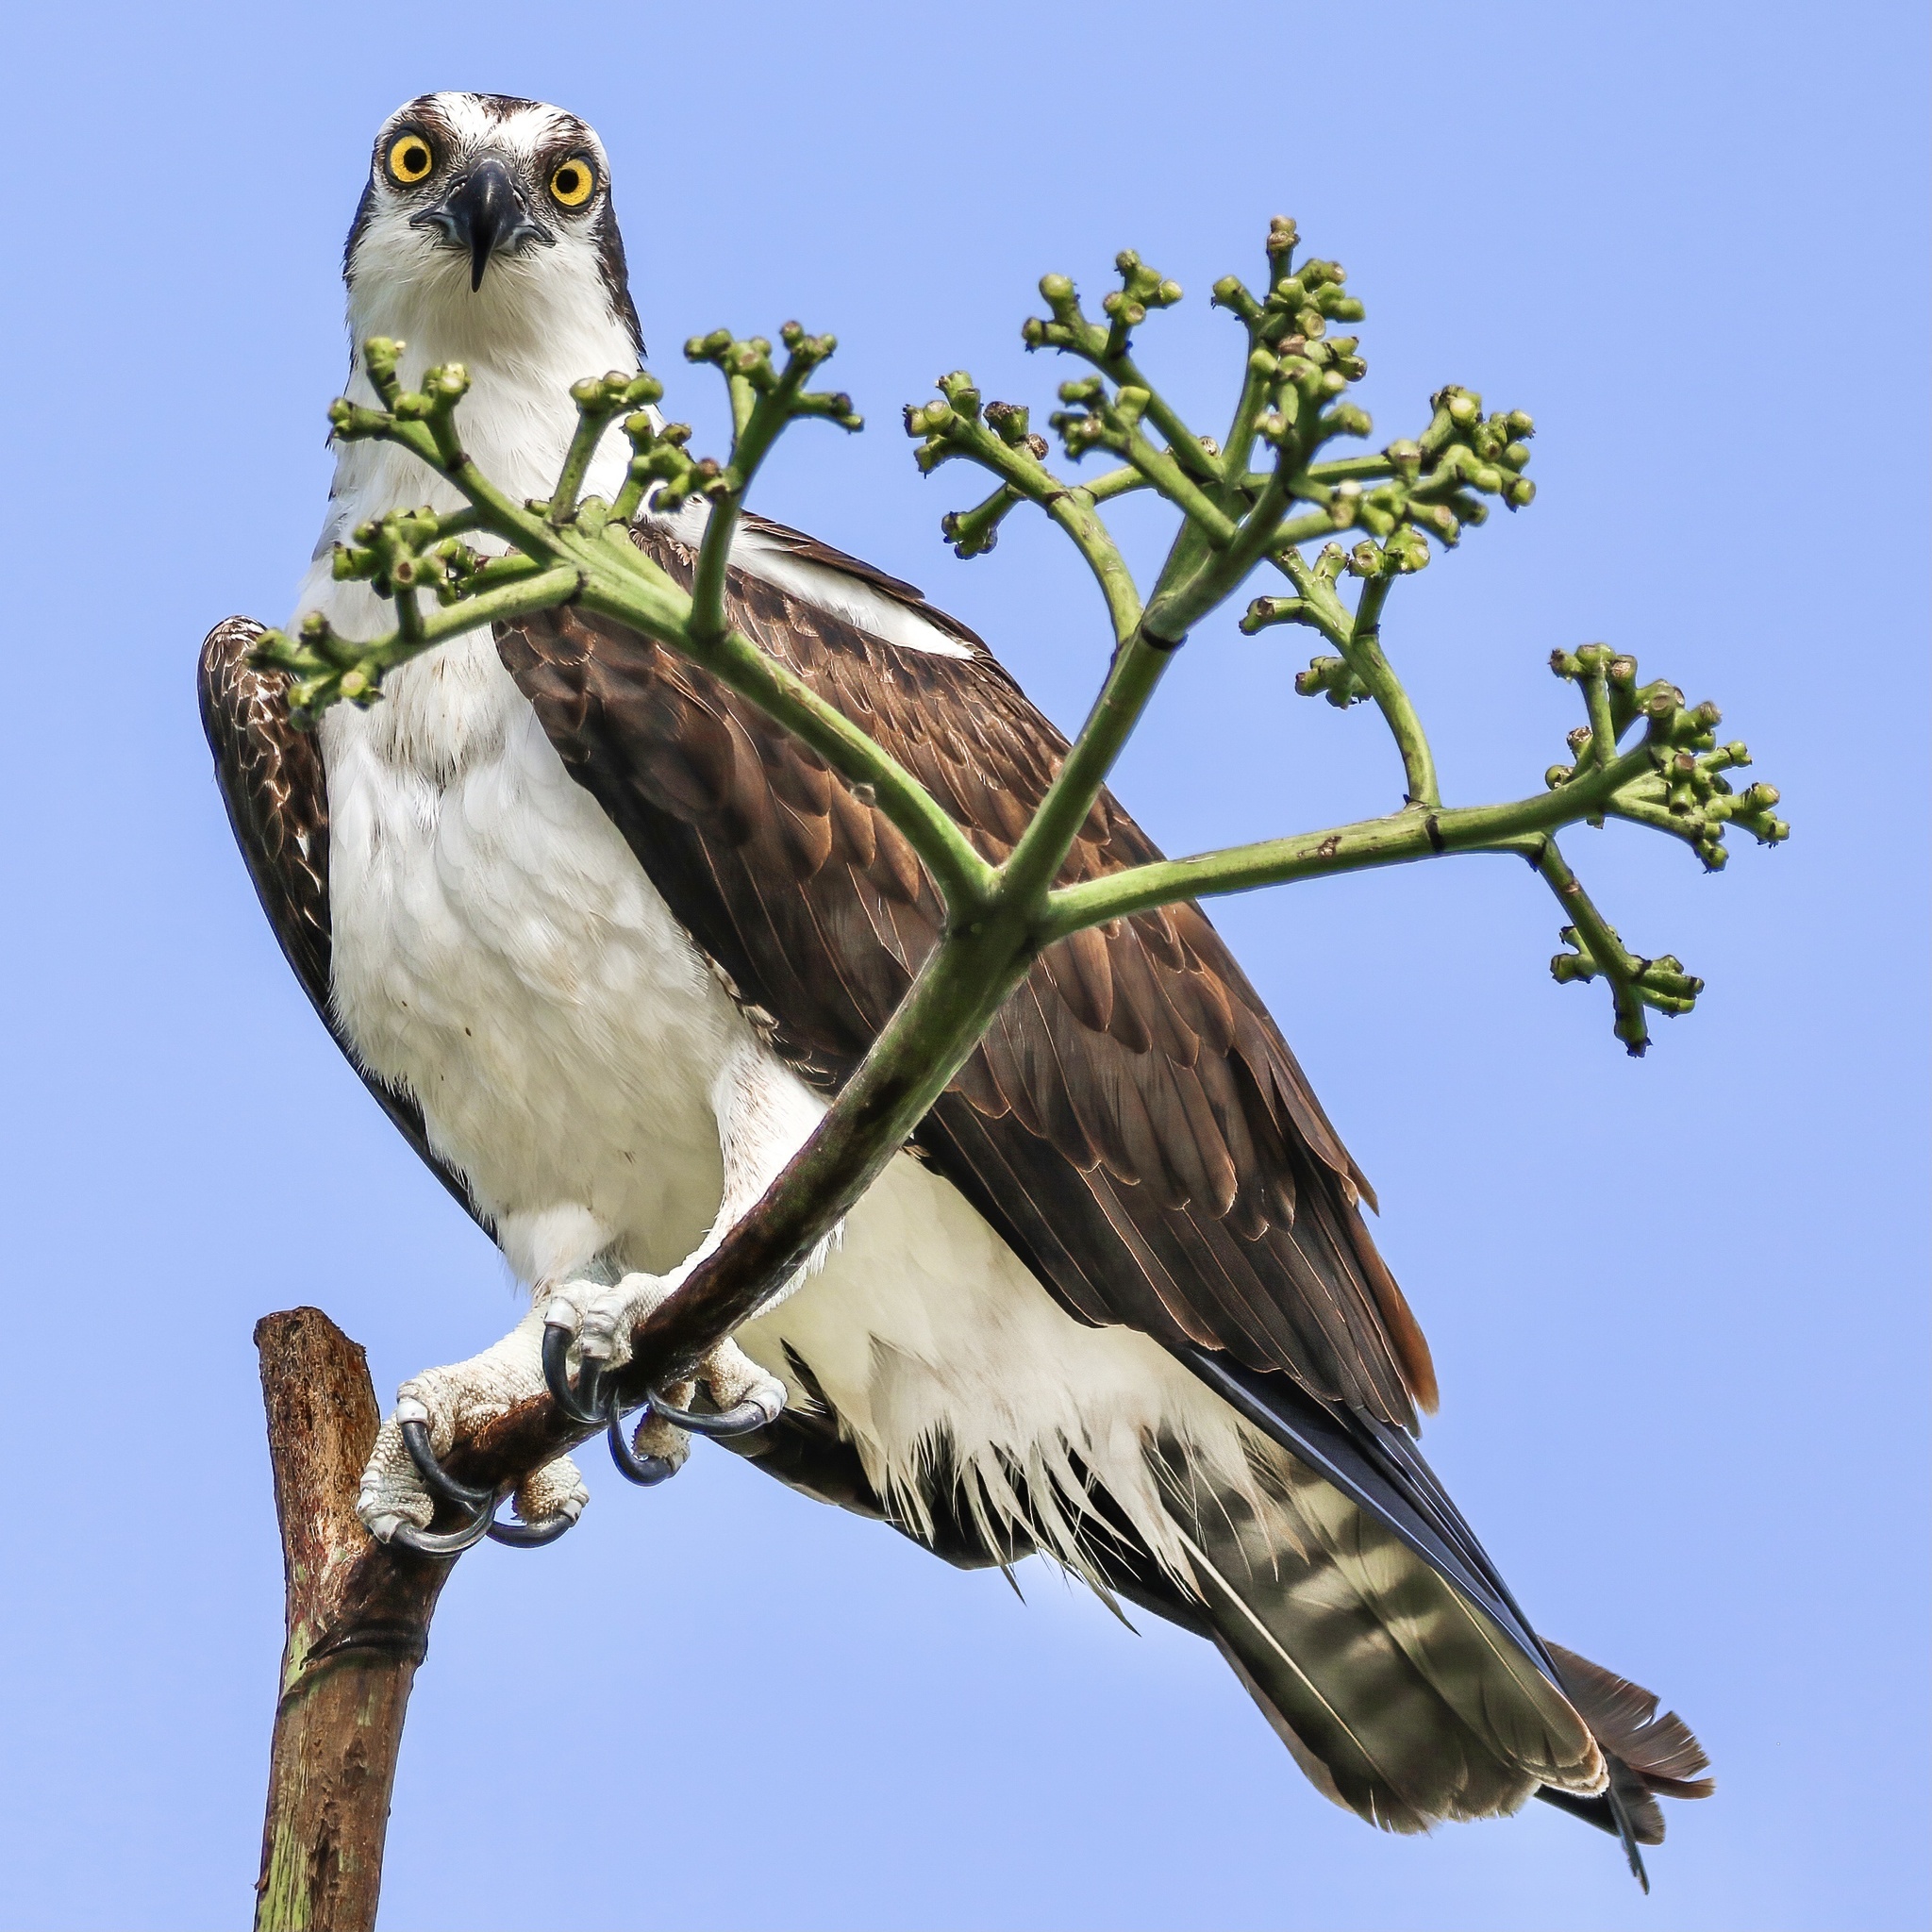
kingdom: Animalia
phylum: Chordata
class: Aves
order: Accipitriformes
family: Pandionidae
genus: Pandion
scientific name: Pandion haliaetus
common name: Osprey
